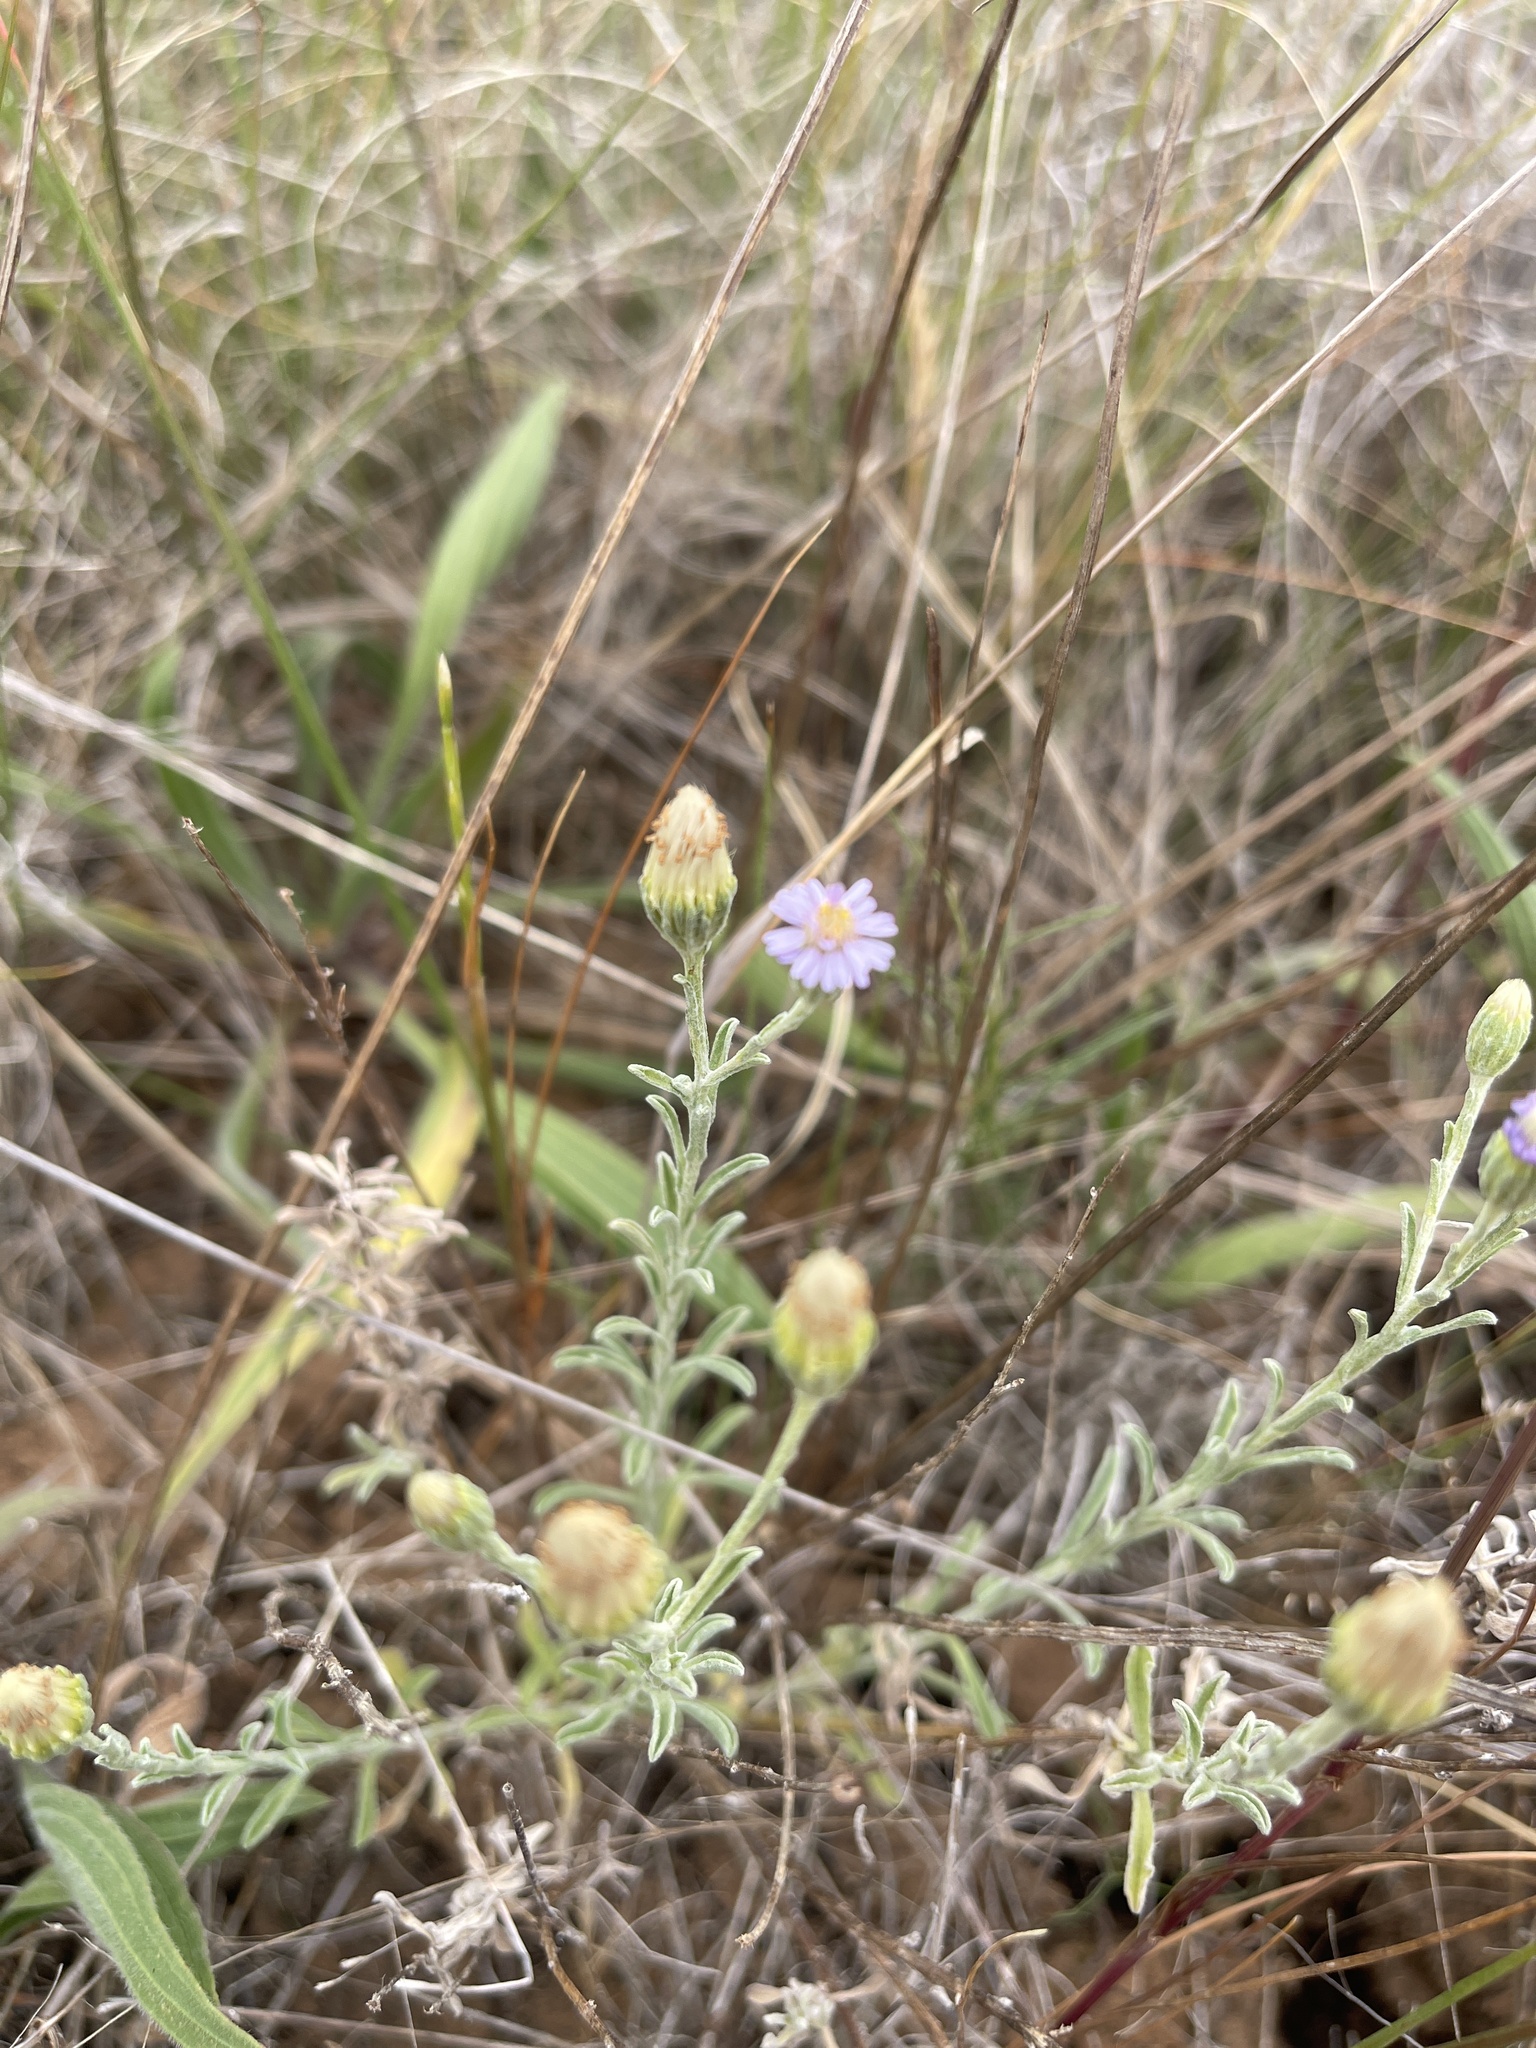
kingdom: Plantae
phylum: Tracheophyta
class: Magnoliopsida
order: Asterales
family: Asteraceae
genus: Vittadinia
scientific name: Vittadinia gracilis
